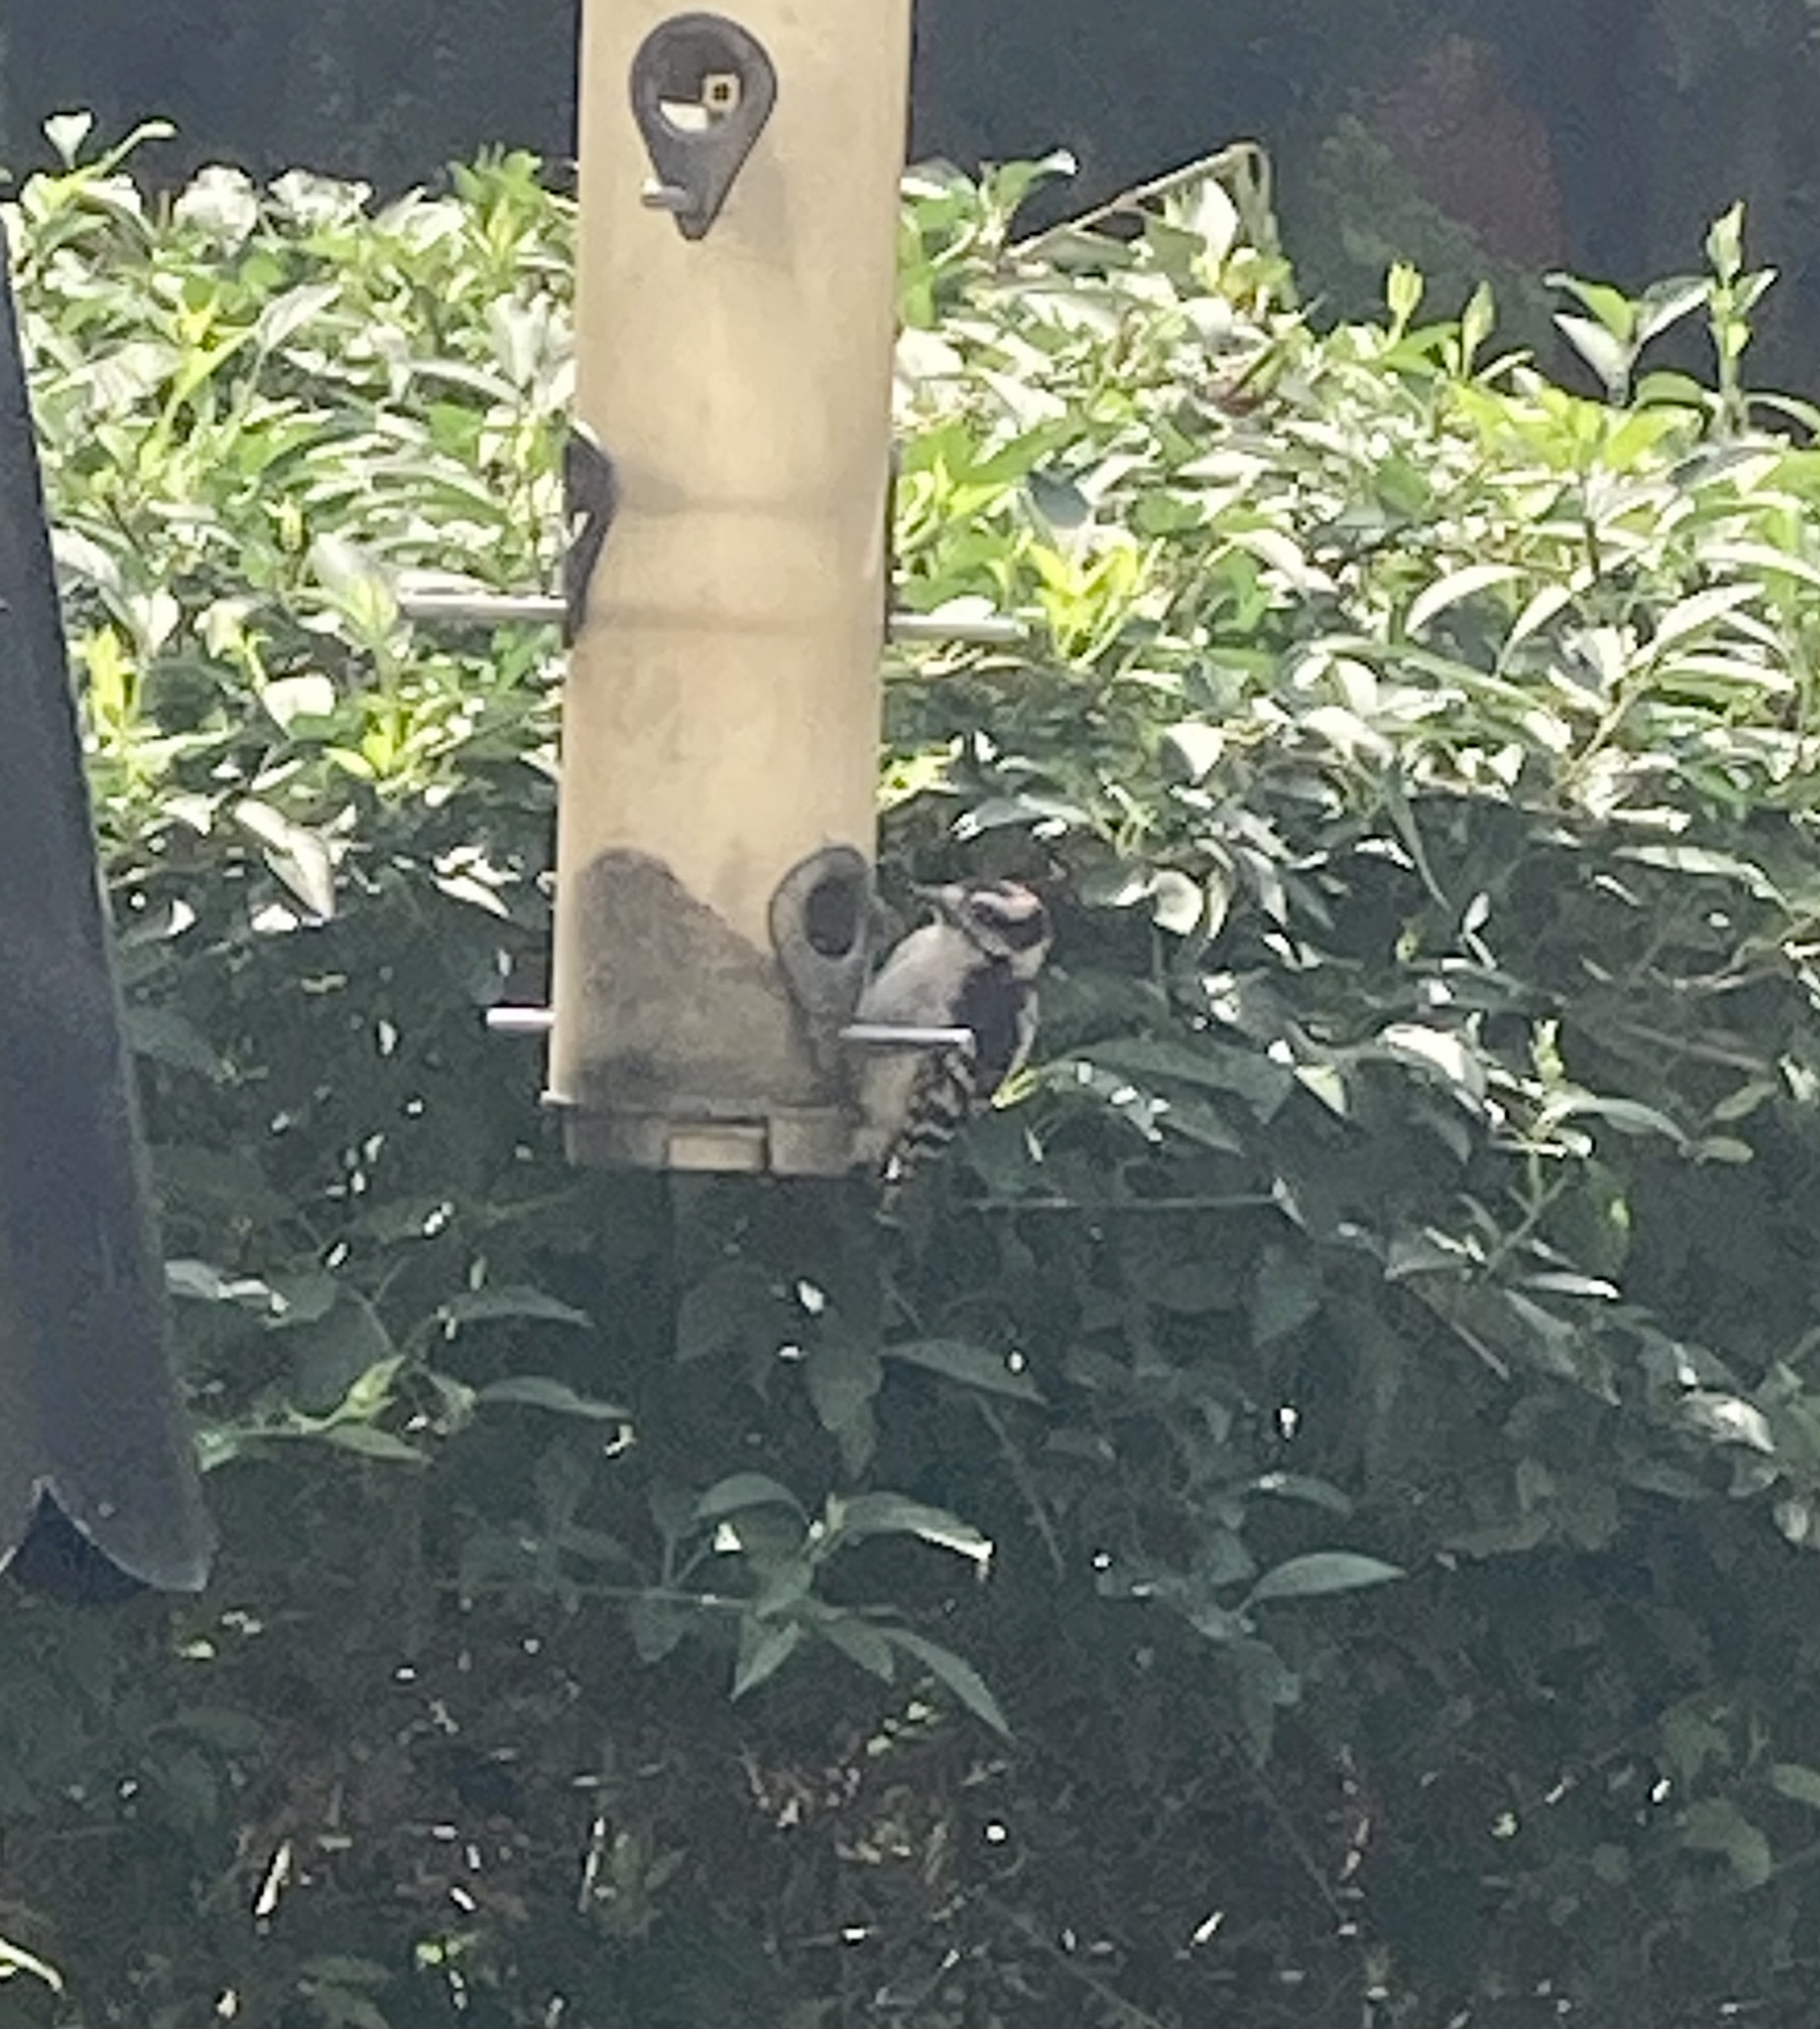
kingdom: Animalia
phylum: Chordata
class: Aves
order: Piciformes
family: Picidae
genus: Dryobates
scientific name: Dryobates pubescens
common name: Downy woodpecker
